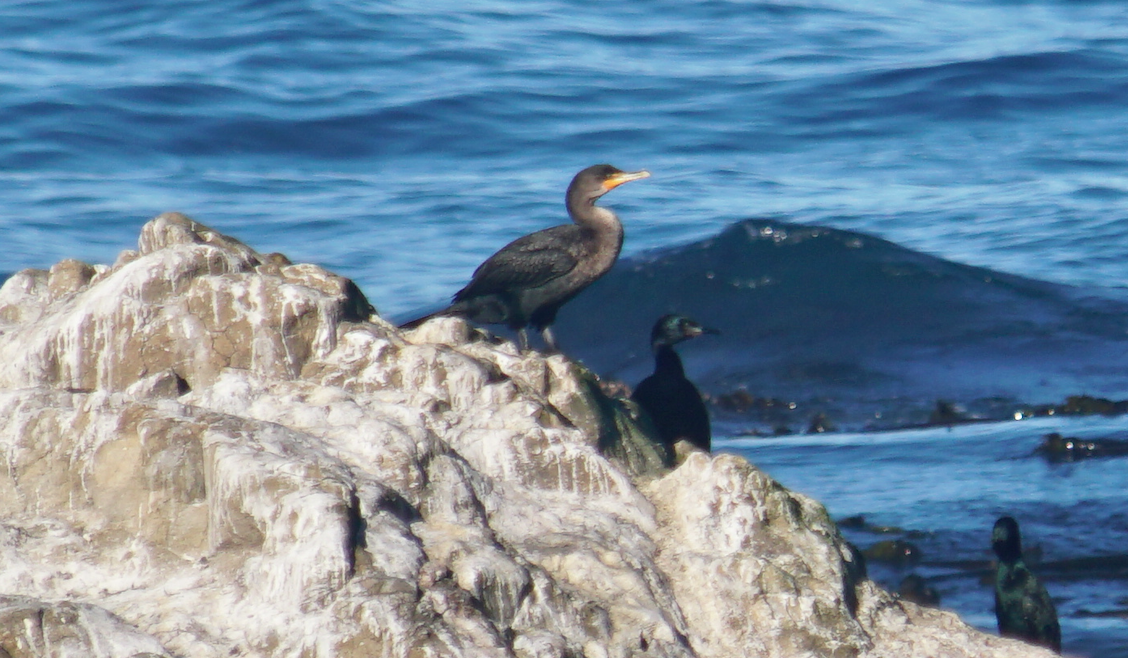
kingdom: Animalia
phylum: Chordata
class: Aves
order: Suliformes
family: Phalacrocoracidae
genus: Phalacrocorax
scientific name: Phalacrocorax auritus
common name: Double-crested cormorant
